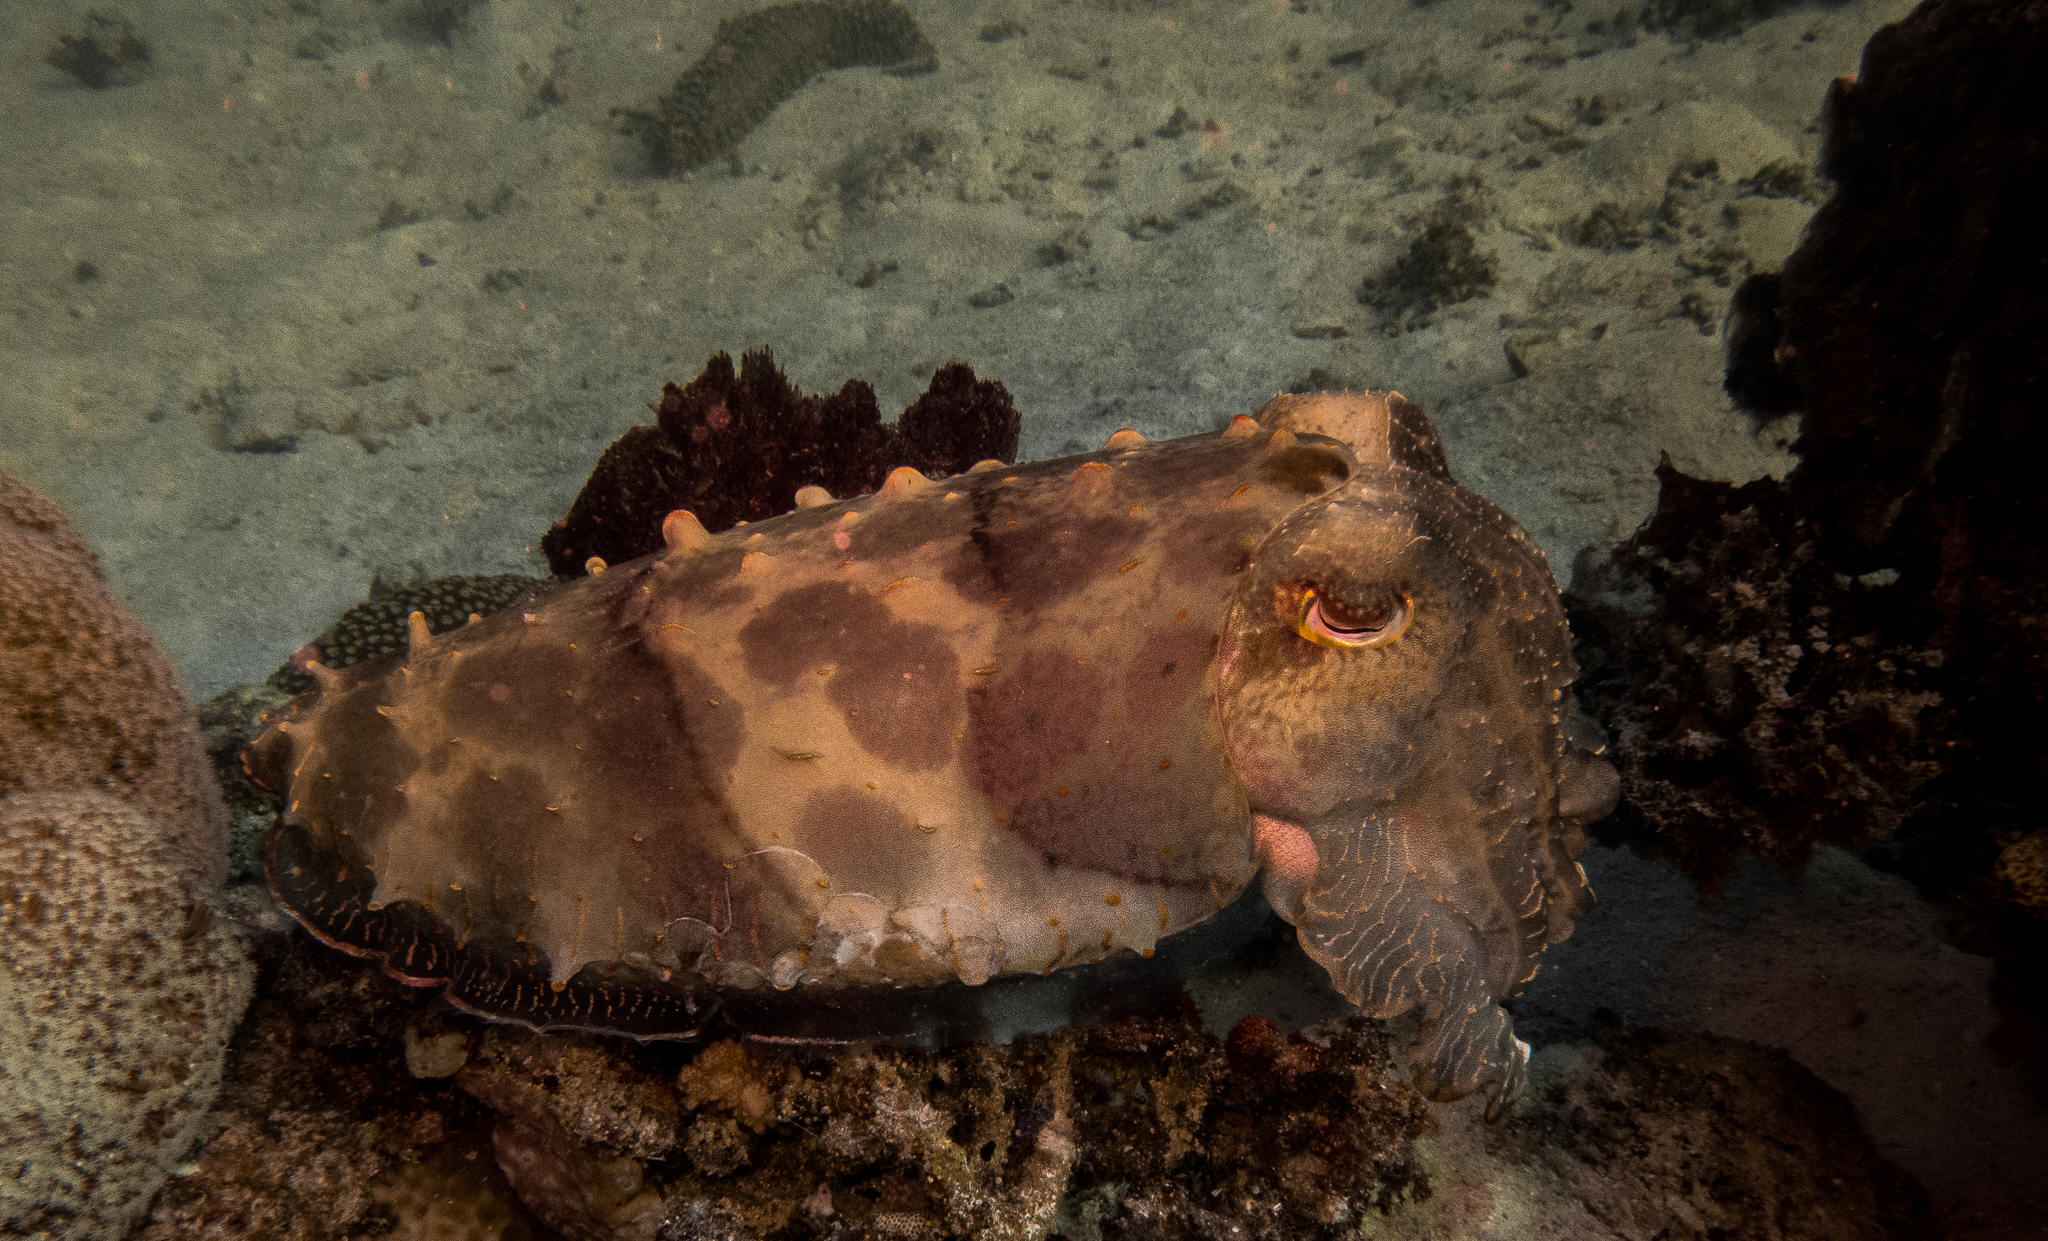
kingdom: Animalia
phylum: Mollusca
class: Cephalopoda
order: Sepiida
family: Sepiidae
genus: Ascarosepion
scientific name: Ascarosepion latimanus
